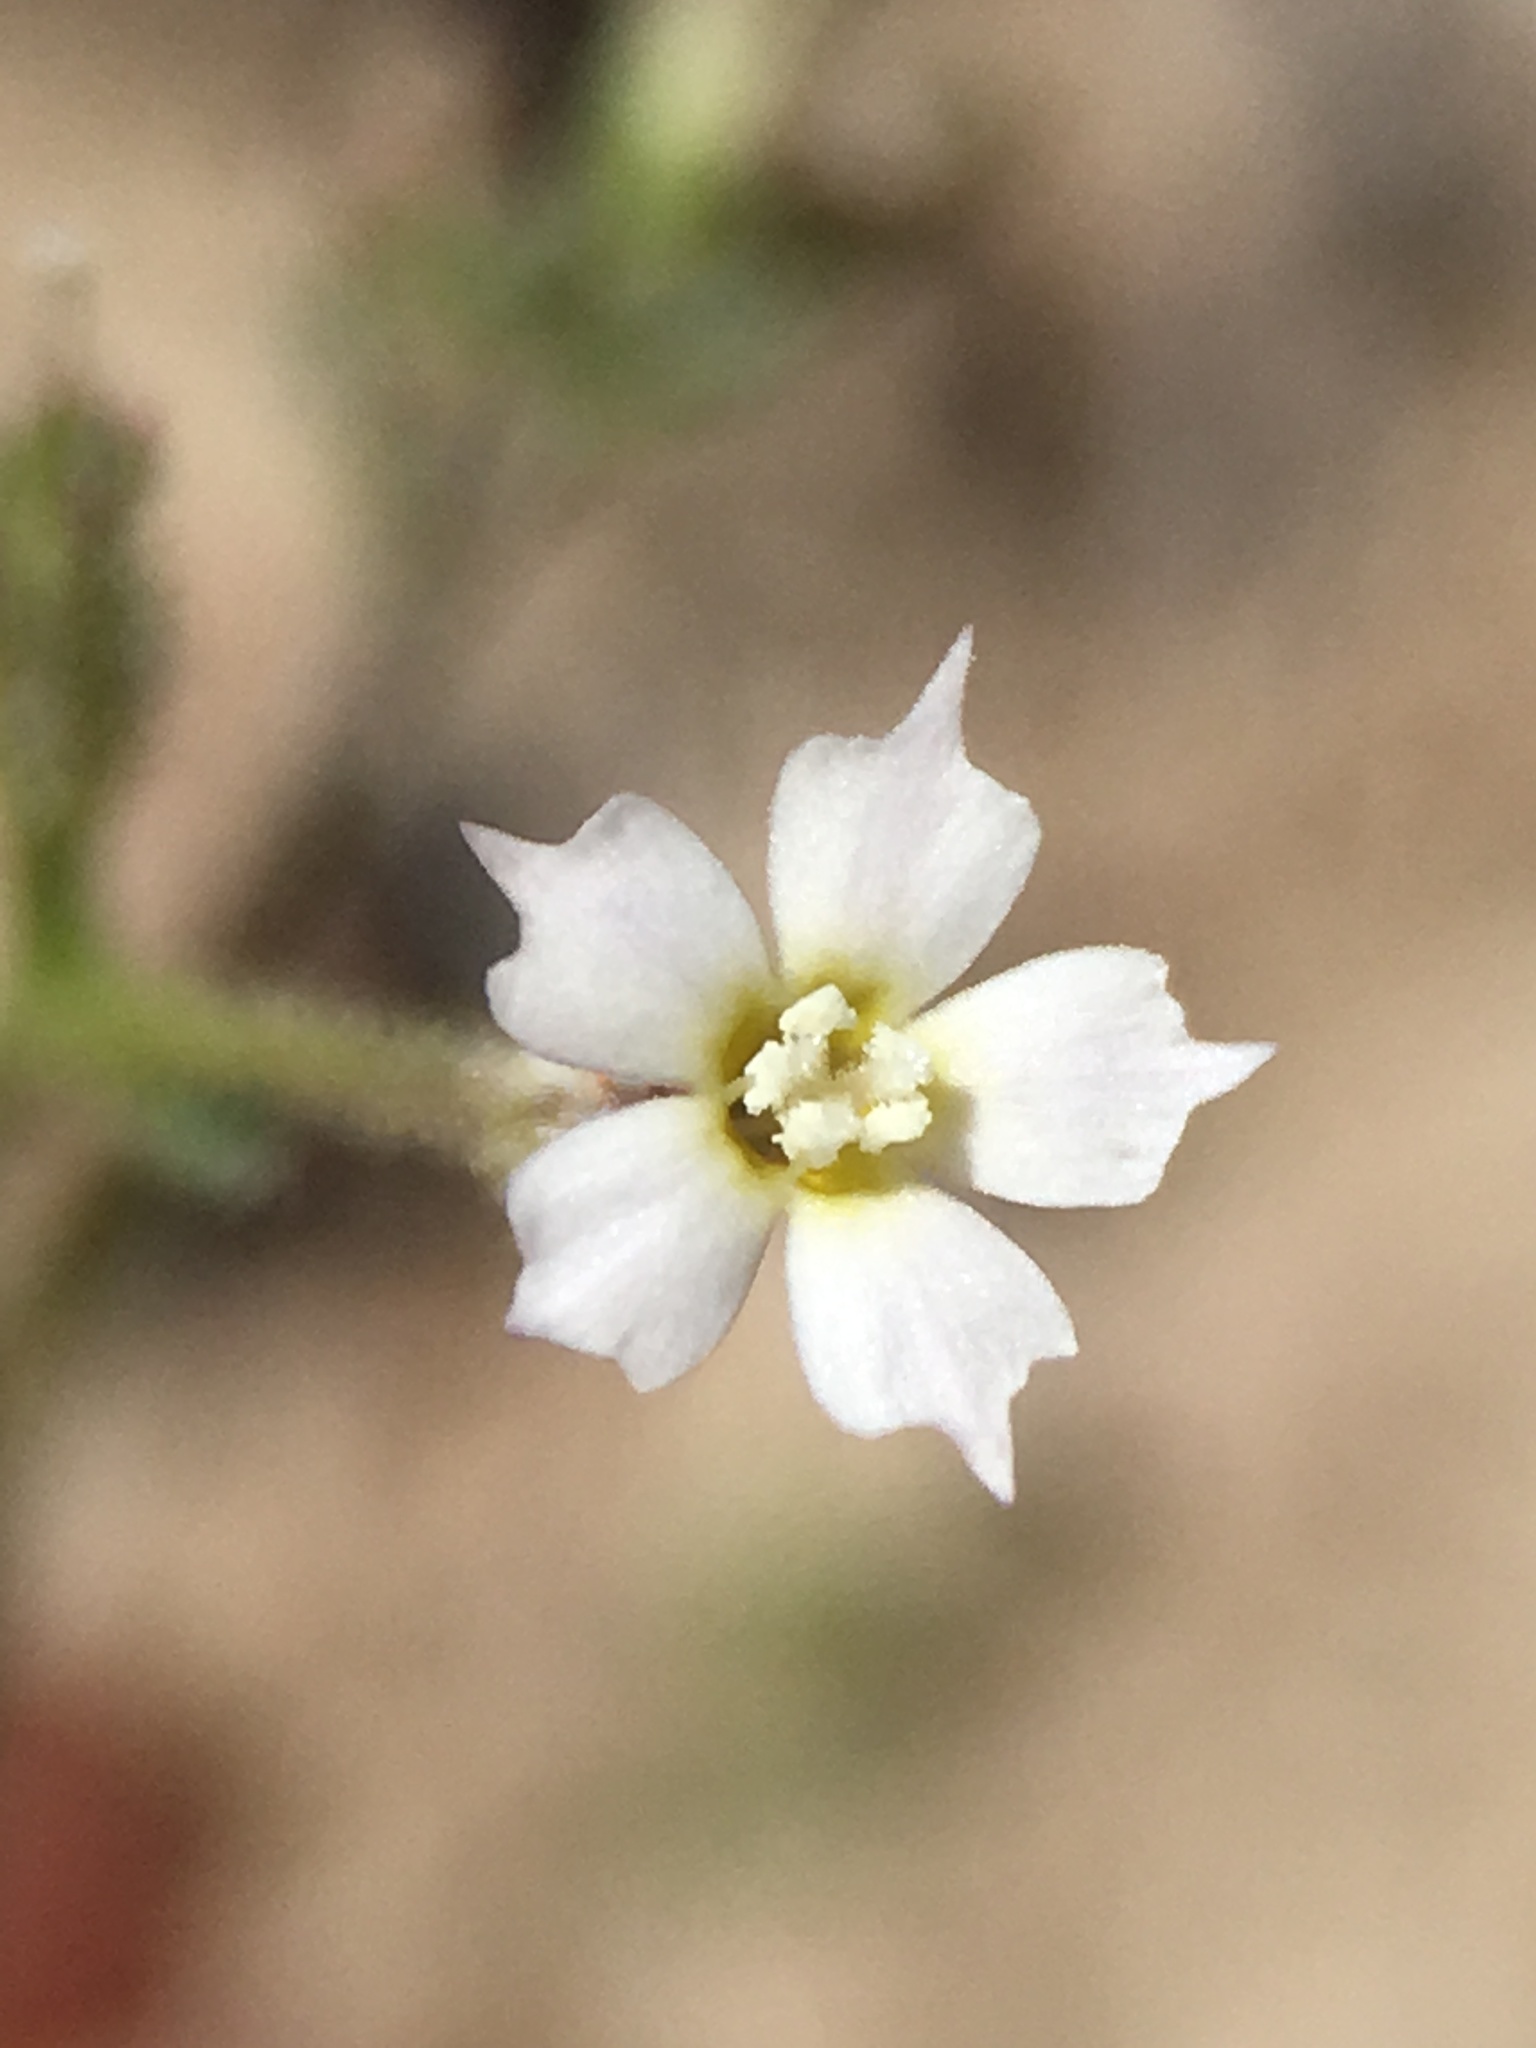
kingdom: Plantae
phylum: Tracheophyta
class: Magnoliopsida
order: Ericales
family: Polemoniaceae
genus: Aliciella
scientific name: Aliciella triodon
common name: Coyote gilia
